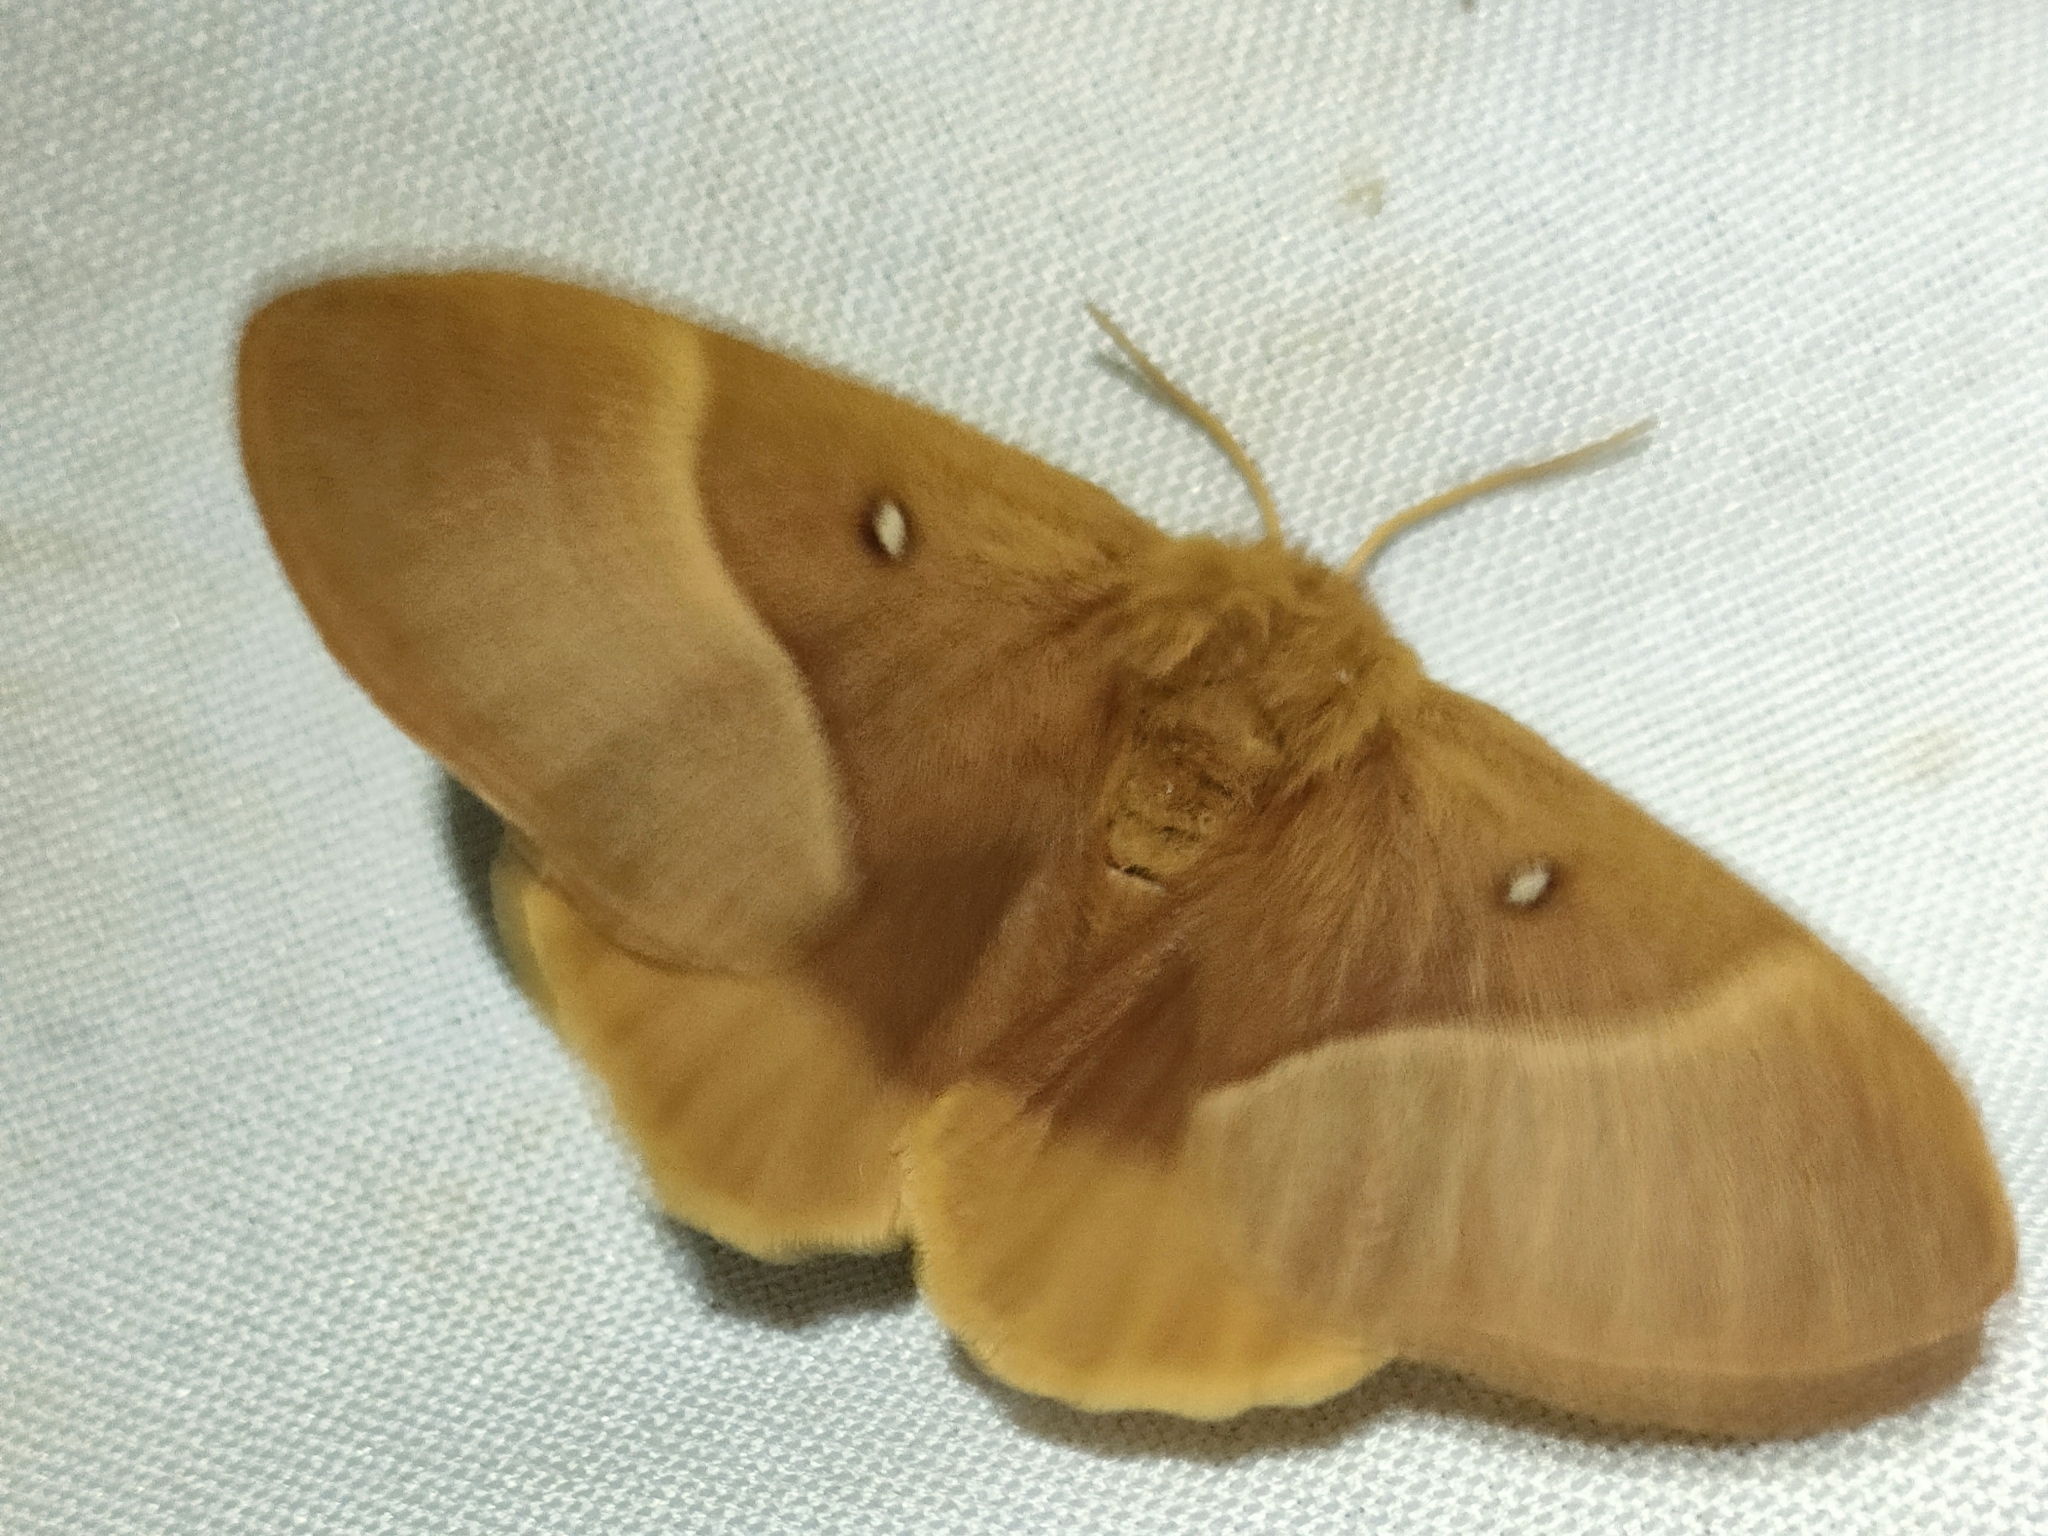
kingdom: Animalia
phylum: Arthropoda
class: Insecta
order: Lepidoptera
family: Lasiocampidae
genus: Lasiocampa
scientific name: Lasiocampa quercus
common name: Oak eggar
